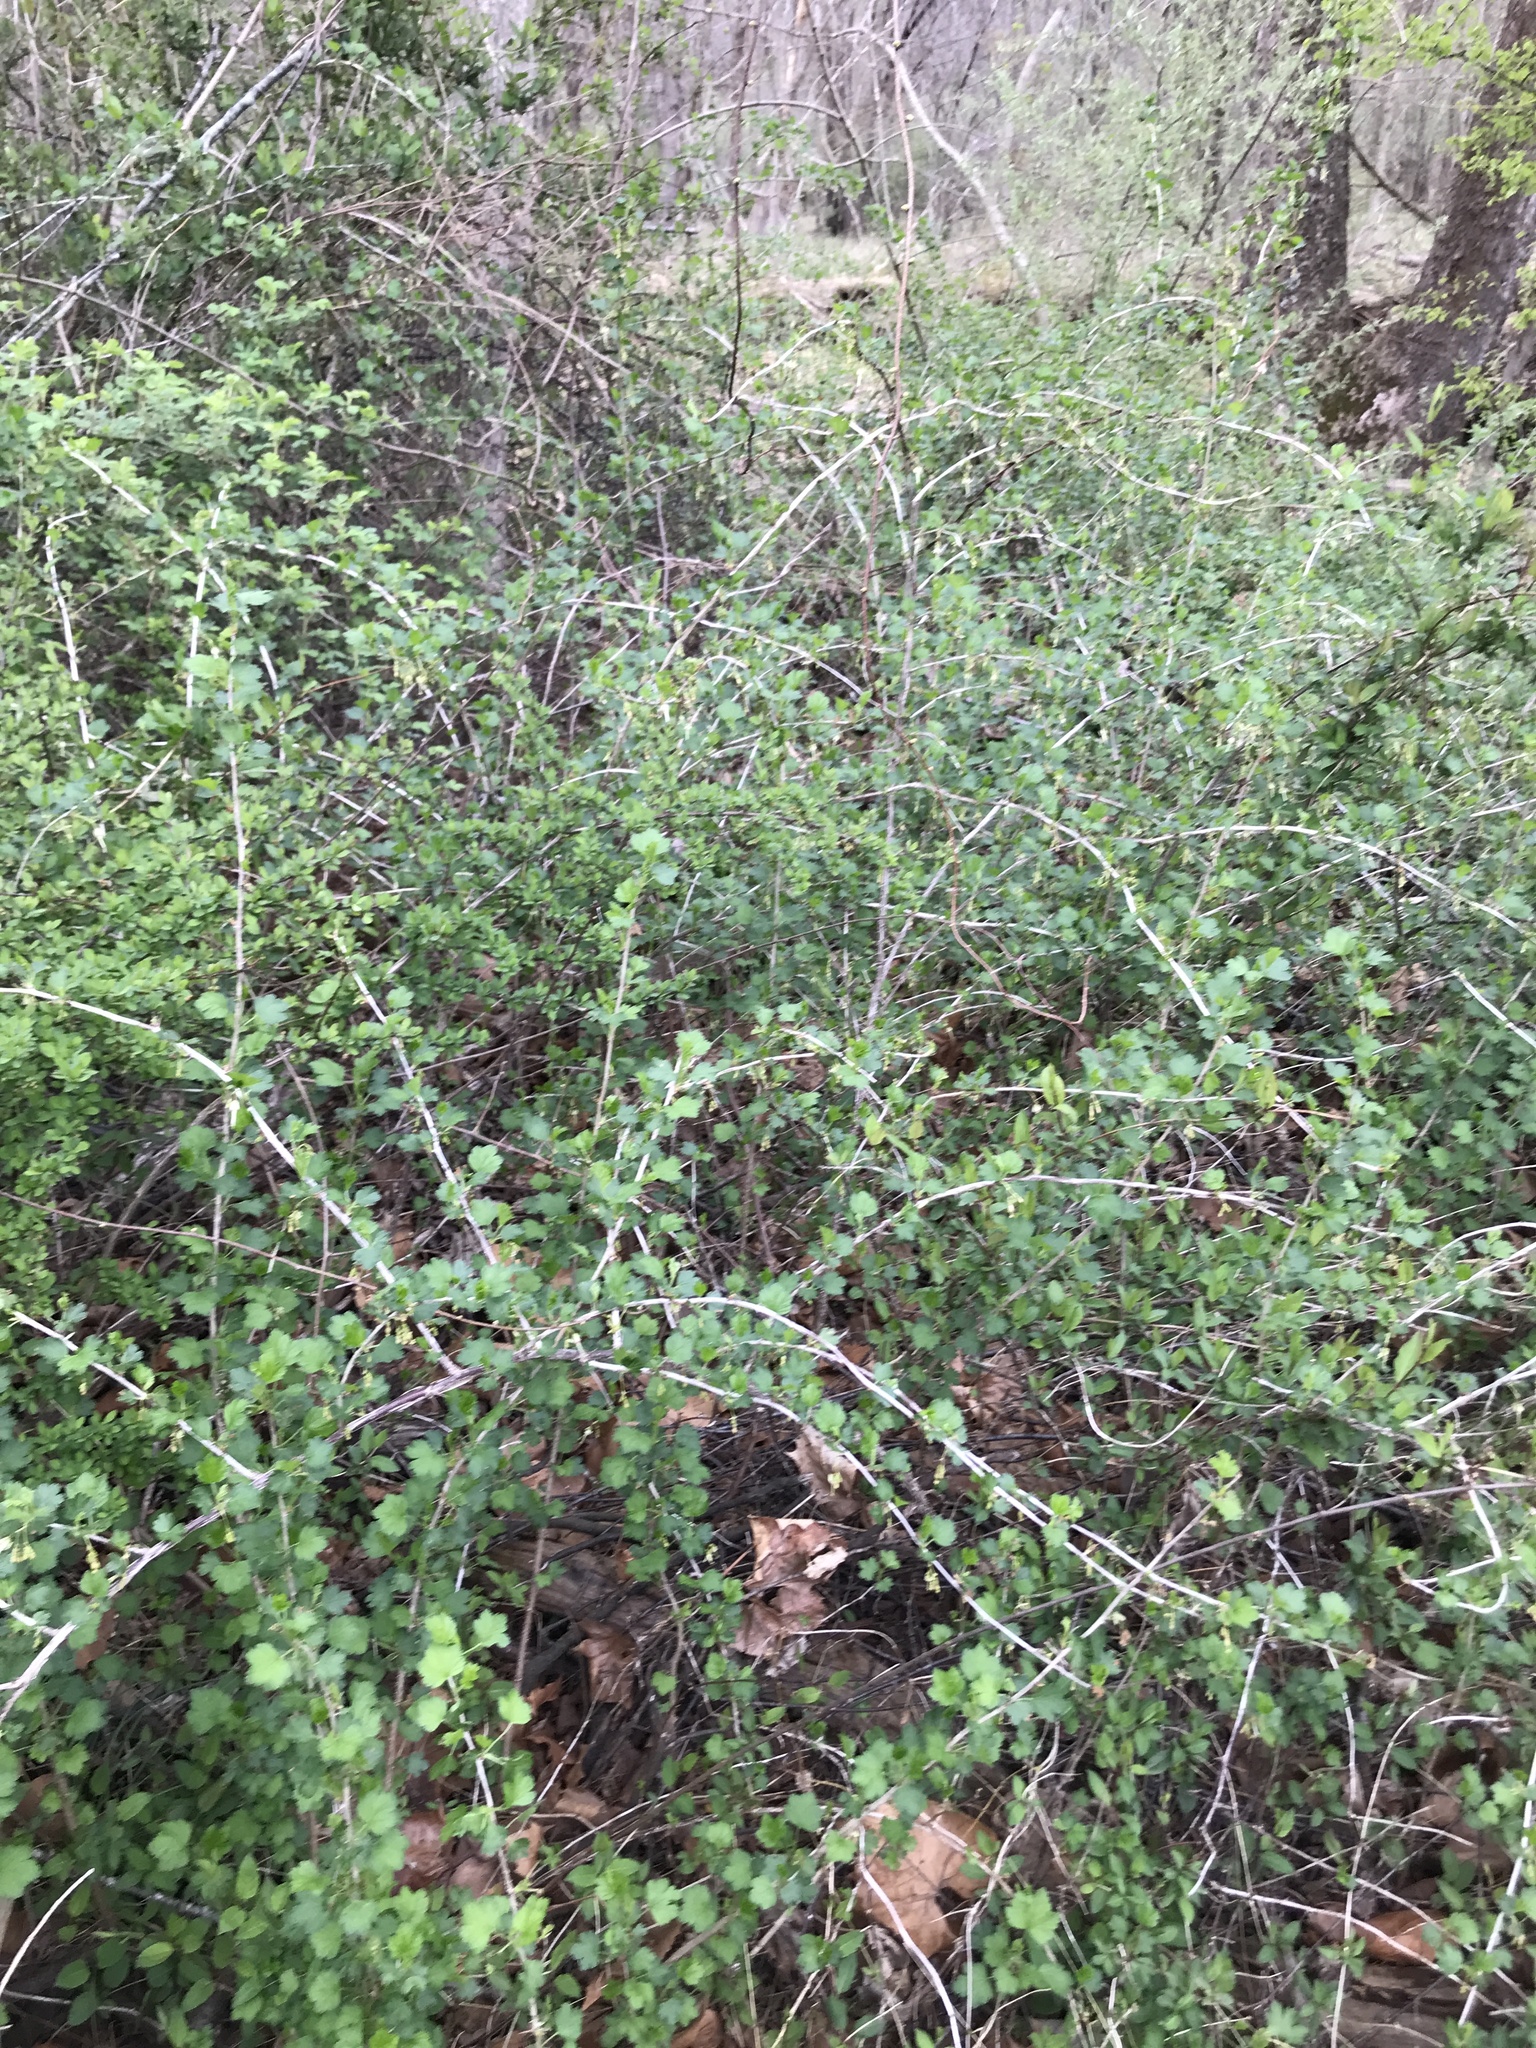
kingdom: Plantae
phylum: Tracheophyta
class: Magnoliopsida
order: Saxifragales
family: Grossulariaceae
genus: Ribes
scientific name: Ribes missouriense
